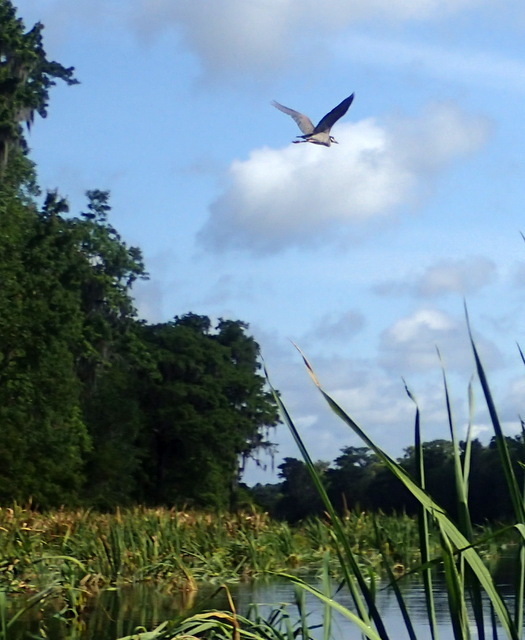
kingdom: Animalia
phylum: Chordata
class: Aves
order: Pelecaniformes
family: Ardeidae
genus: Ardea
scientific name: Ardea herodias
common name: Great blue heron
